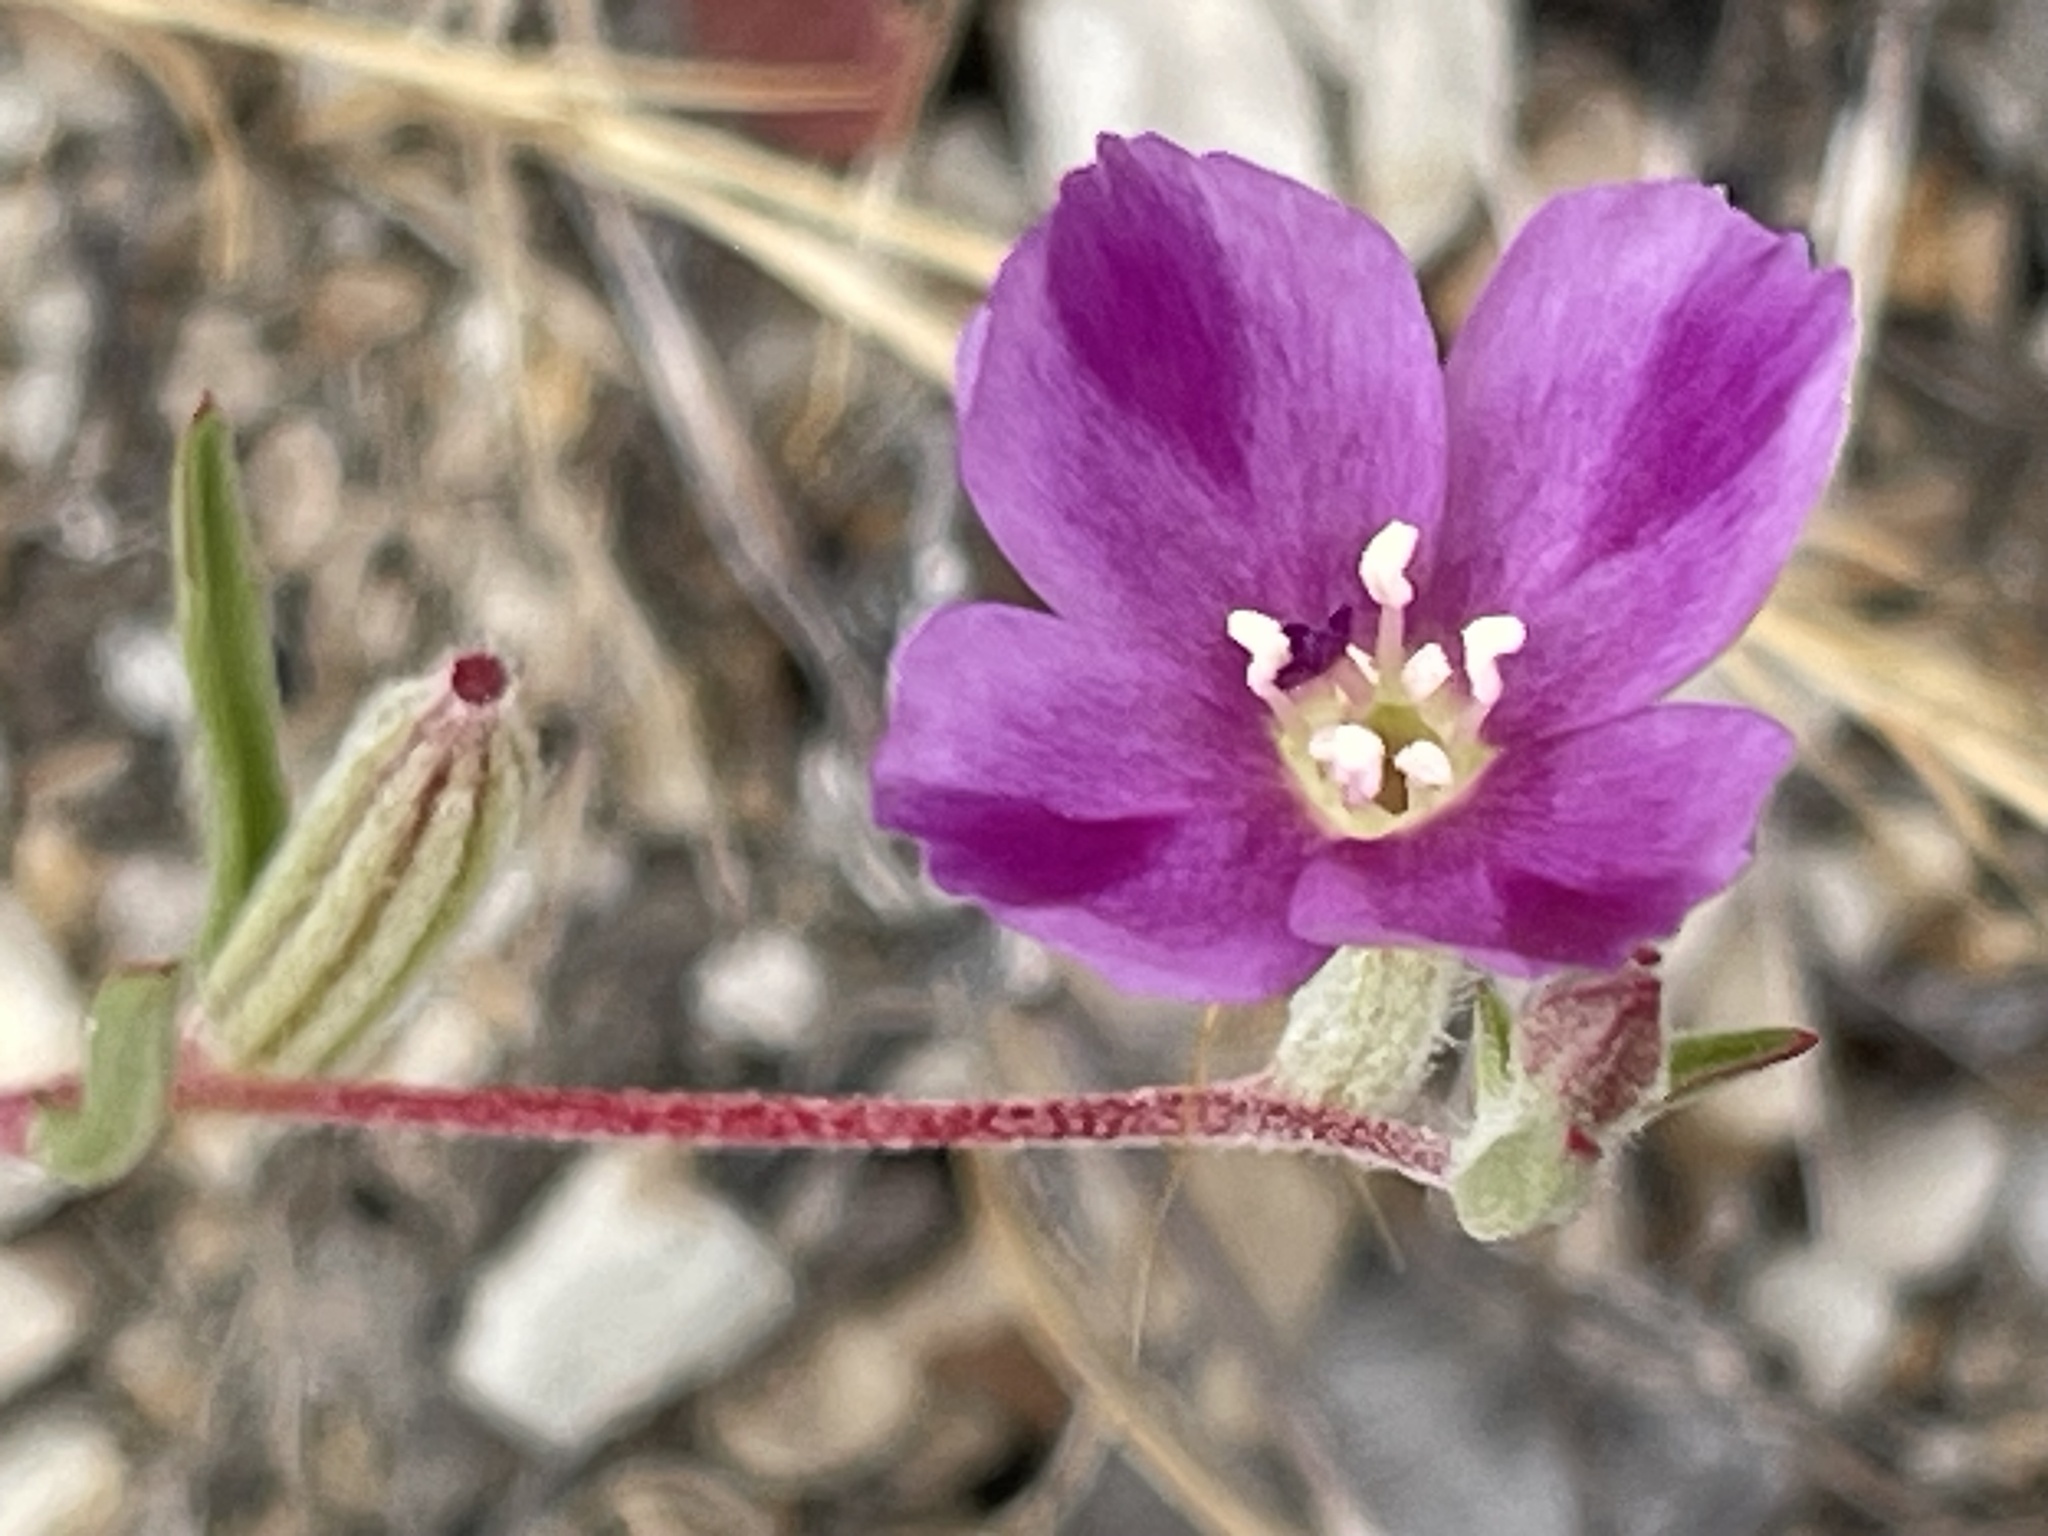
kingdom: Plantae
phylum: Tracheophyta
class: Magnoliopsida
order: Myrtales
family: Onagraceae
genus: Clarkia
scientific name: Clarkia purpurea
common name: Purple clarkia
